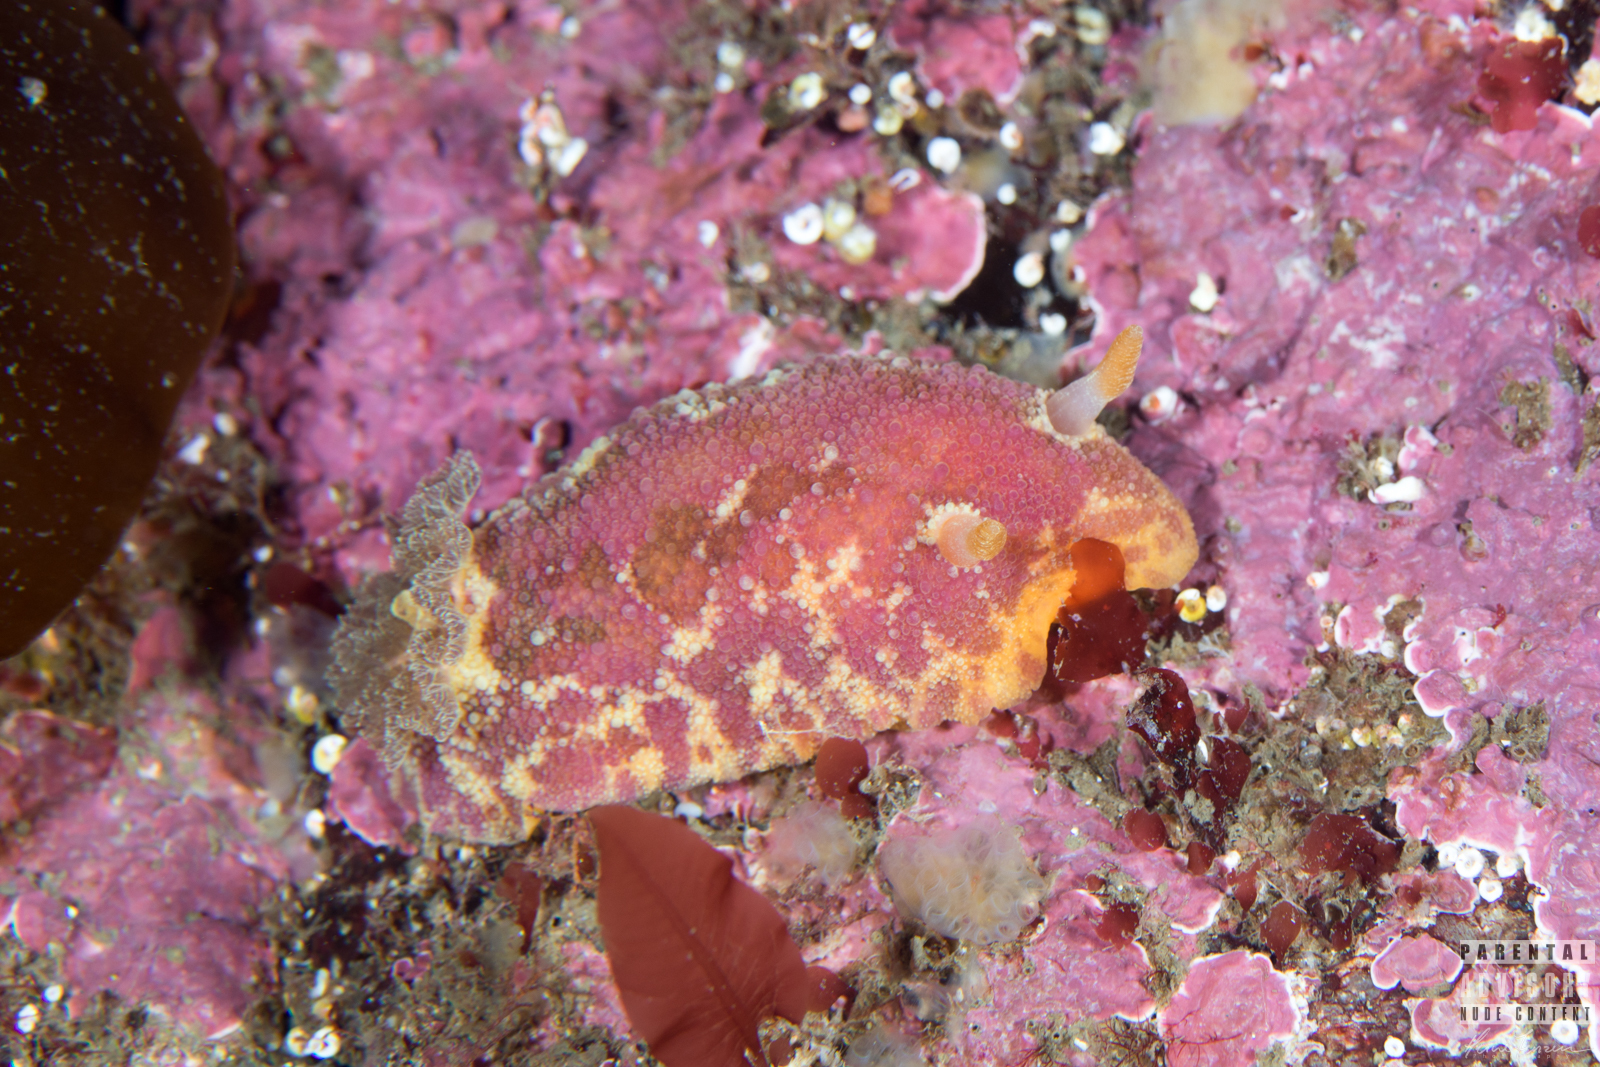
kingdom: Animalia
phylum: Mollusca
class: Gastropoda
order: Nudibranchia
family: Dorididae
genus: Doris
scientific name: Doris pseudoargus
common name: Sea lemon
